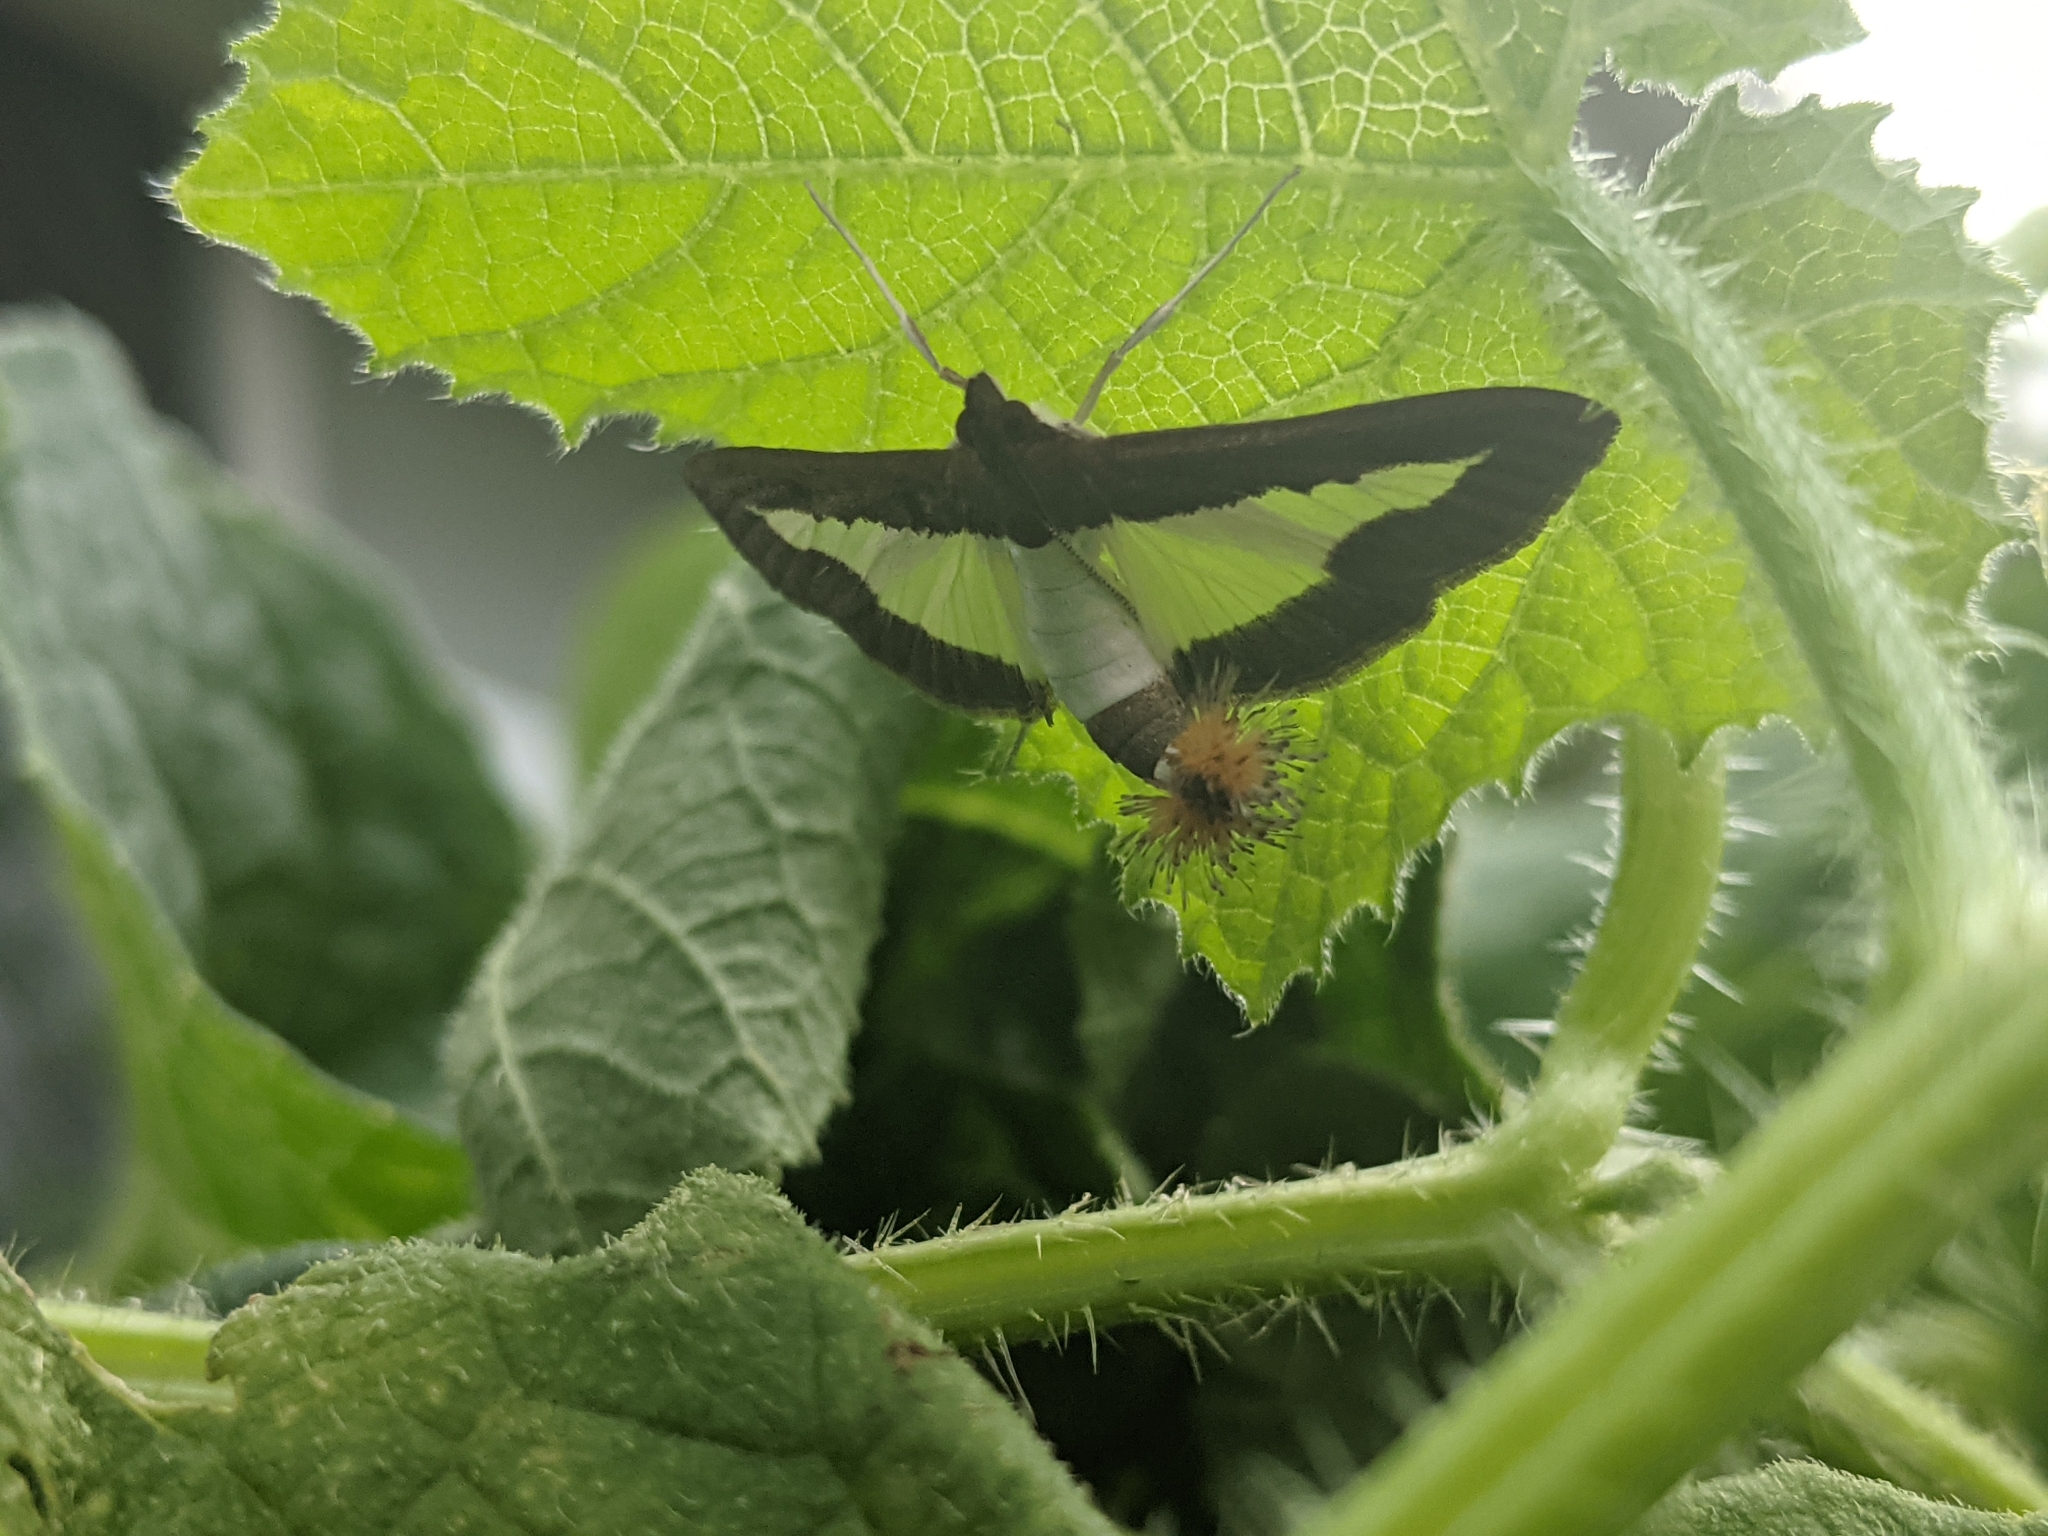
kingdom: Animalia
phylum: Arthropoda
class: Insecta
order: Lepidoptera
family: Crambidae
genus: Diaphania
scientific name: Diaphania indica
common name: Cucumber moth
